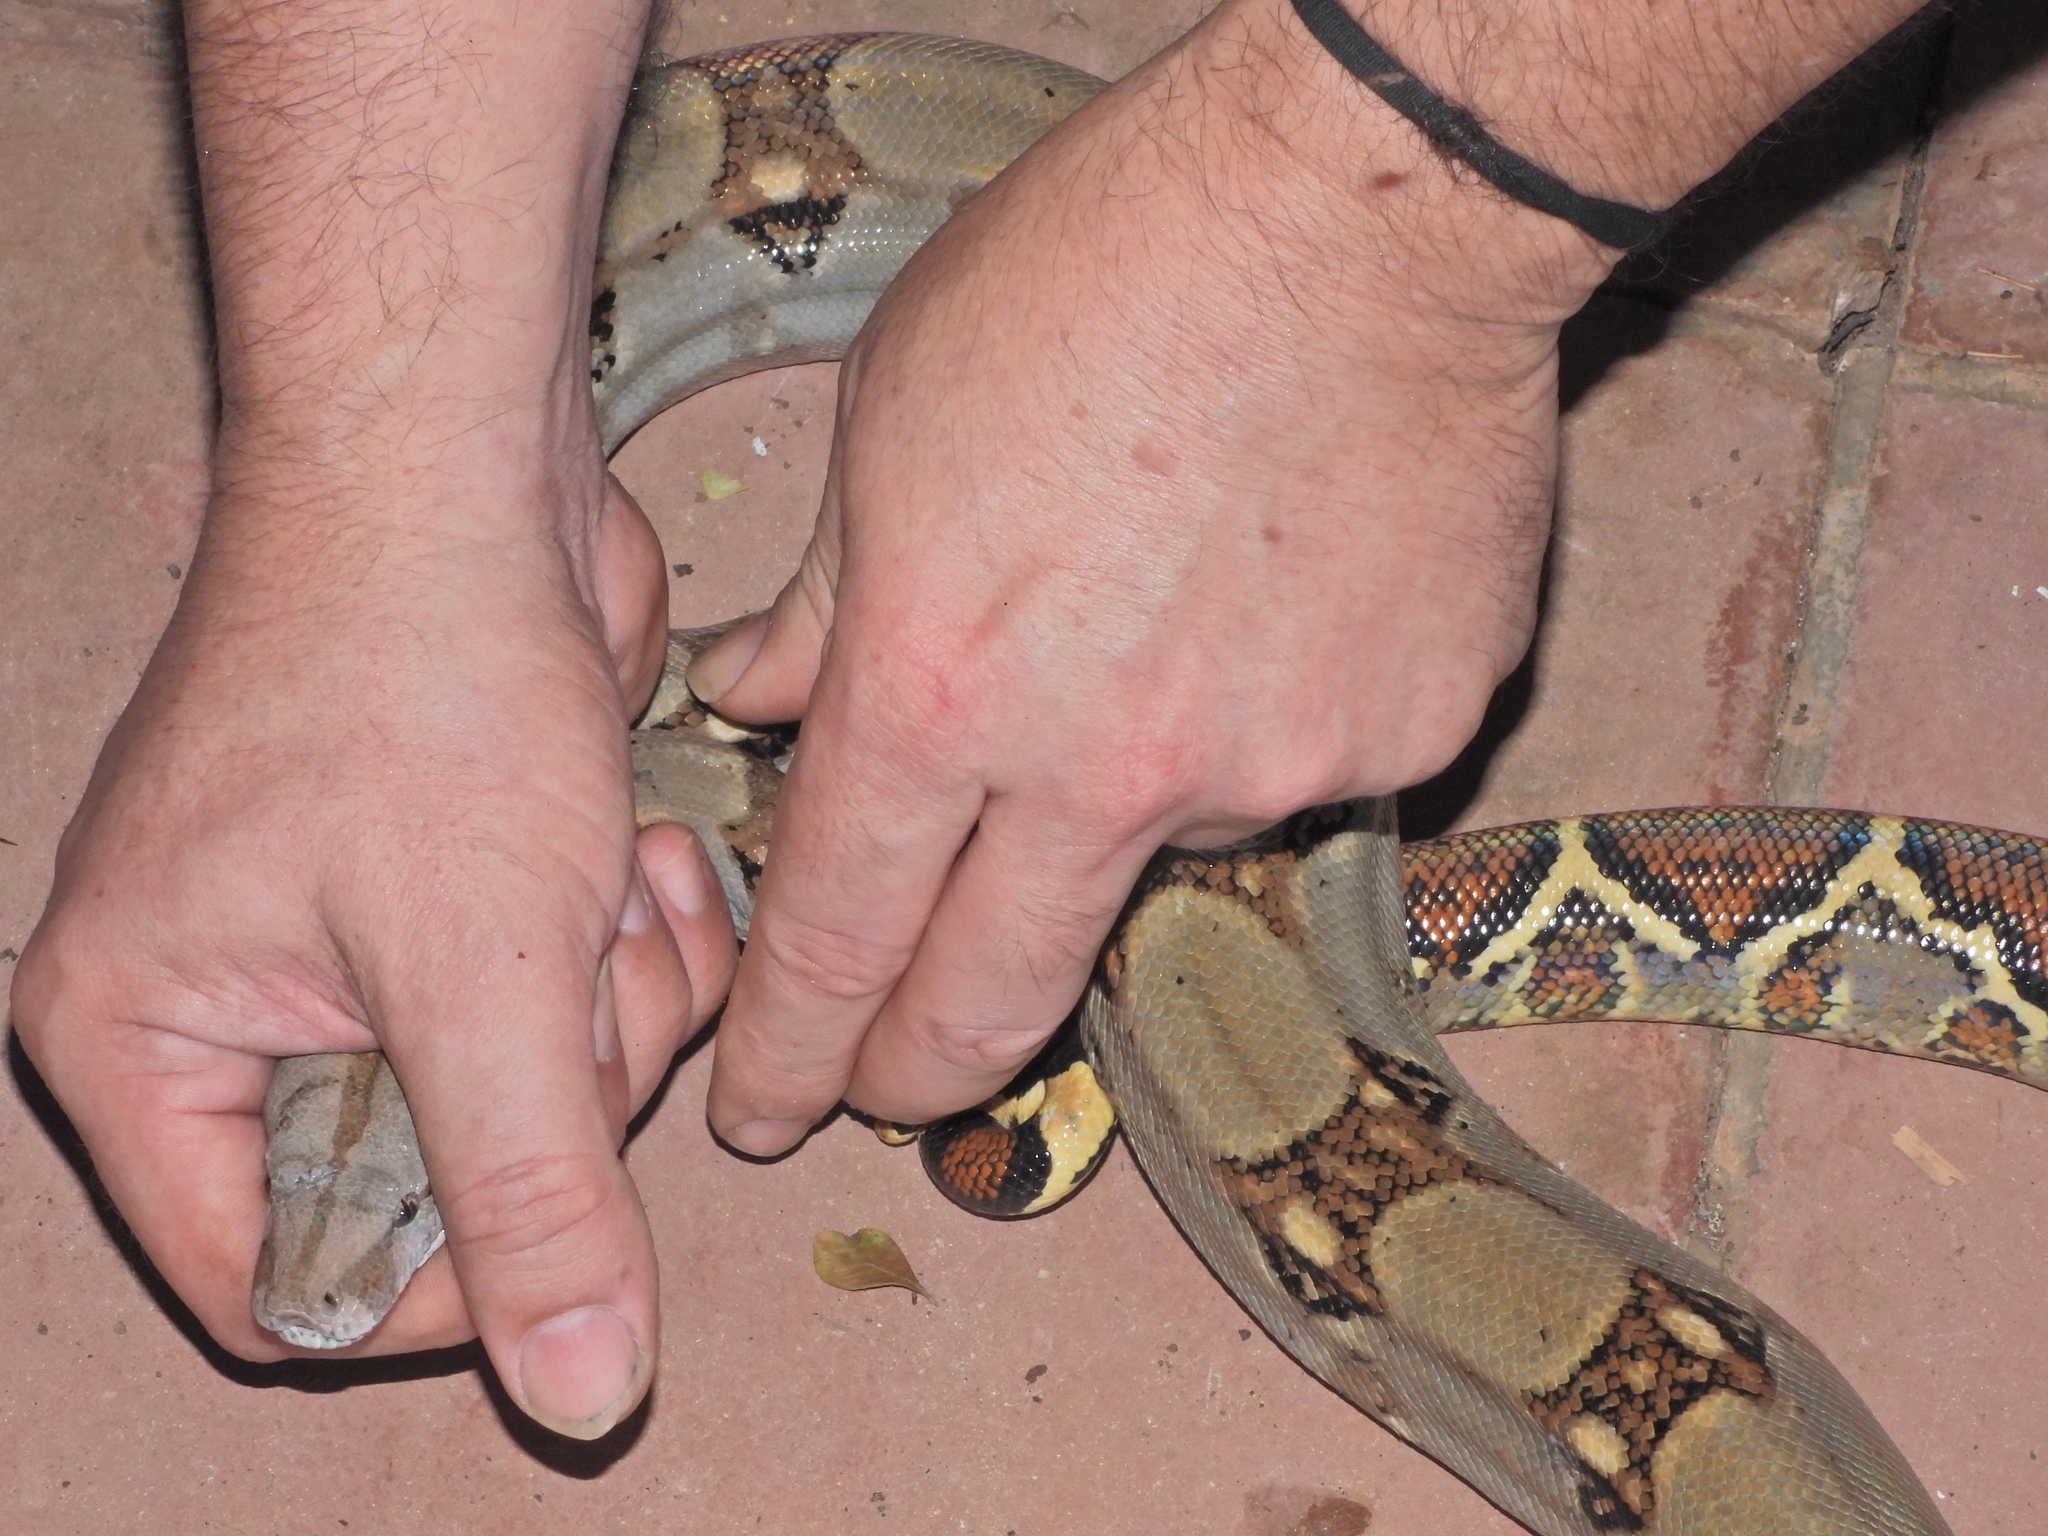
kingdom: Animalia
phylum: Chordata
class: Squamata
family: Boidae
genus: Boa
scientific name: Boa imperator
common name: Central american boa
